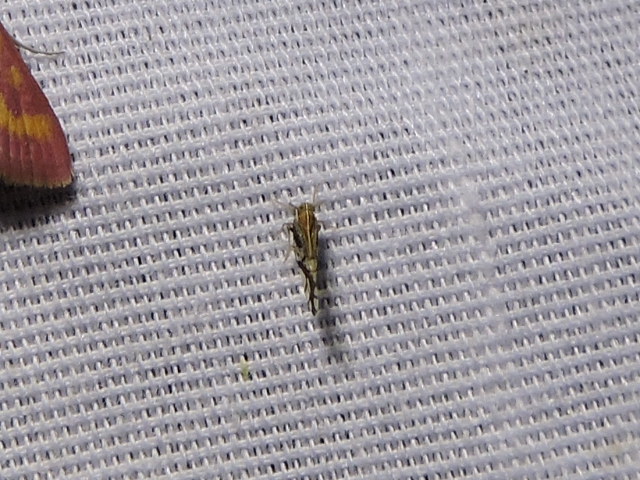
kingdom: Animalia
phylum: Arthropoda
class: Insecta
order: Hemiptera
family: Delphacidae
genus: Liburniella
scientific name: Liburniella ornata
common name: Ornate planthopper
